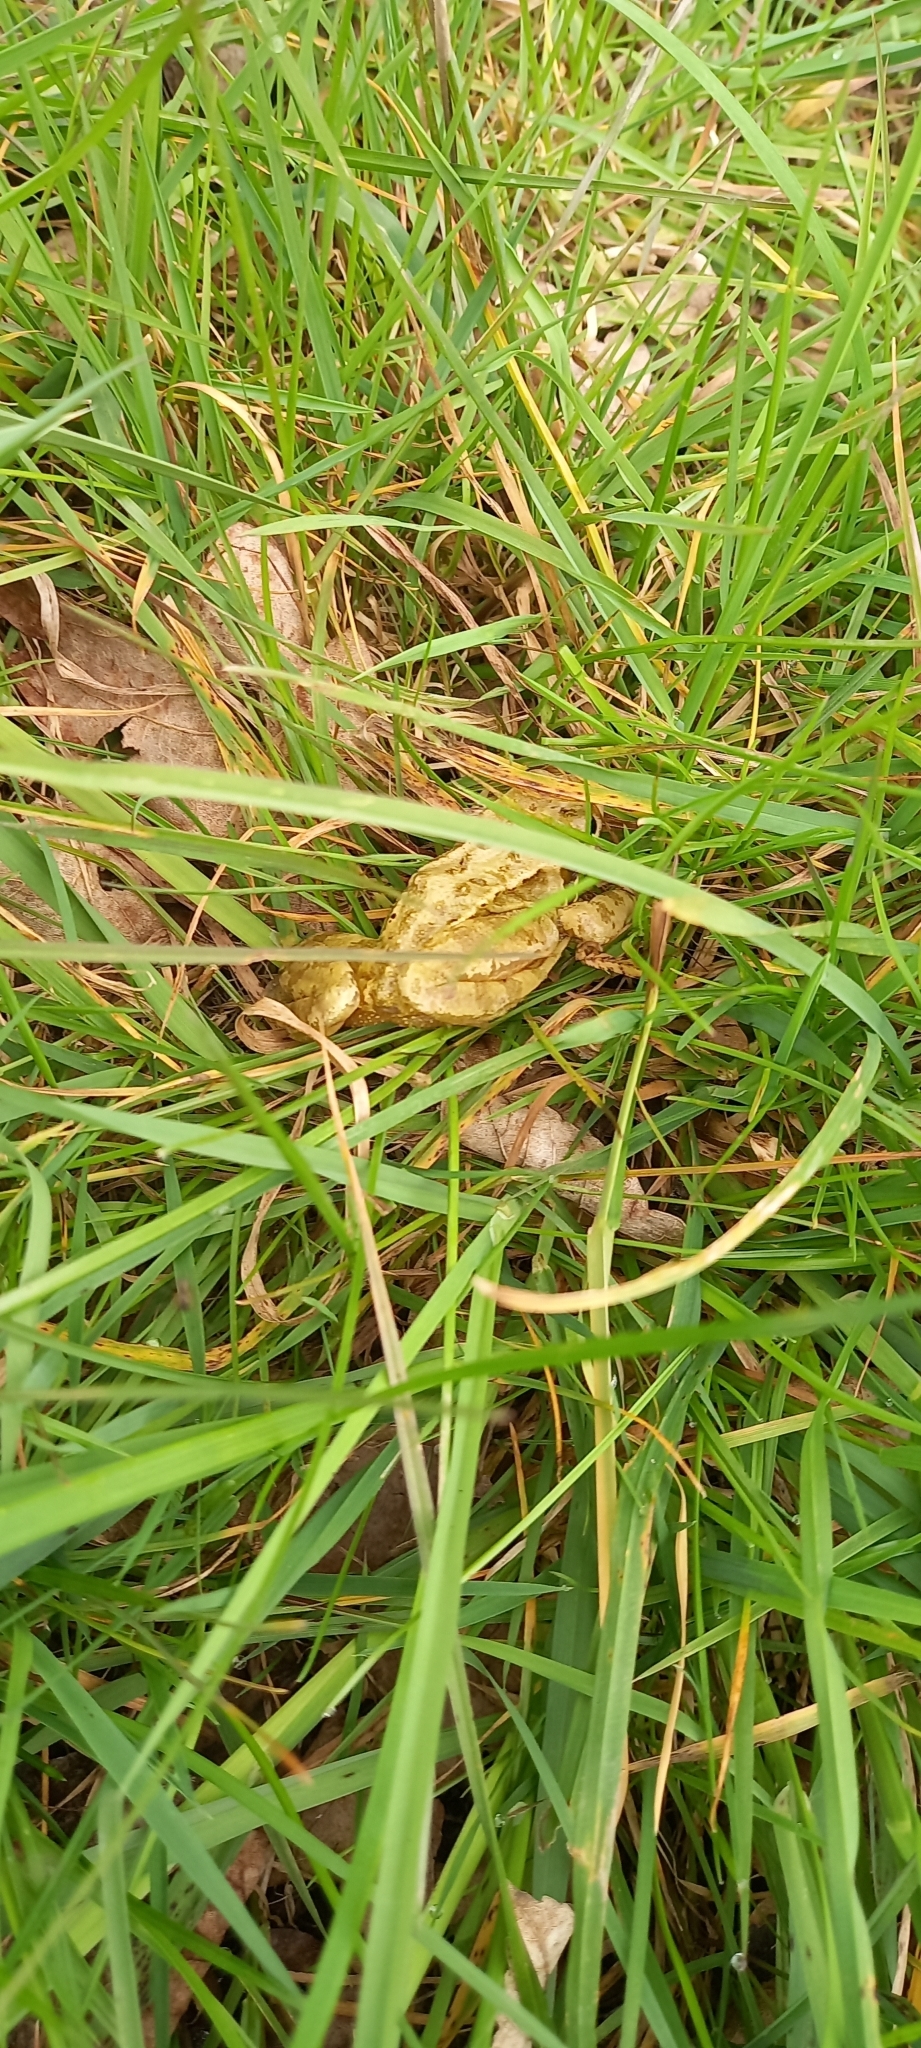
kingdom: Animalia
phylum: Chordata
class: Amphibia
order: Anura
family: Ranidae
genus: Rana
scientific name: Rana temporaria
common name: Common frog
